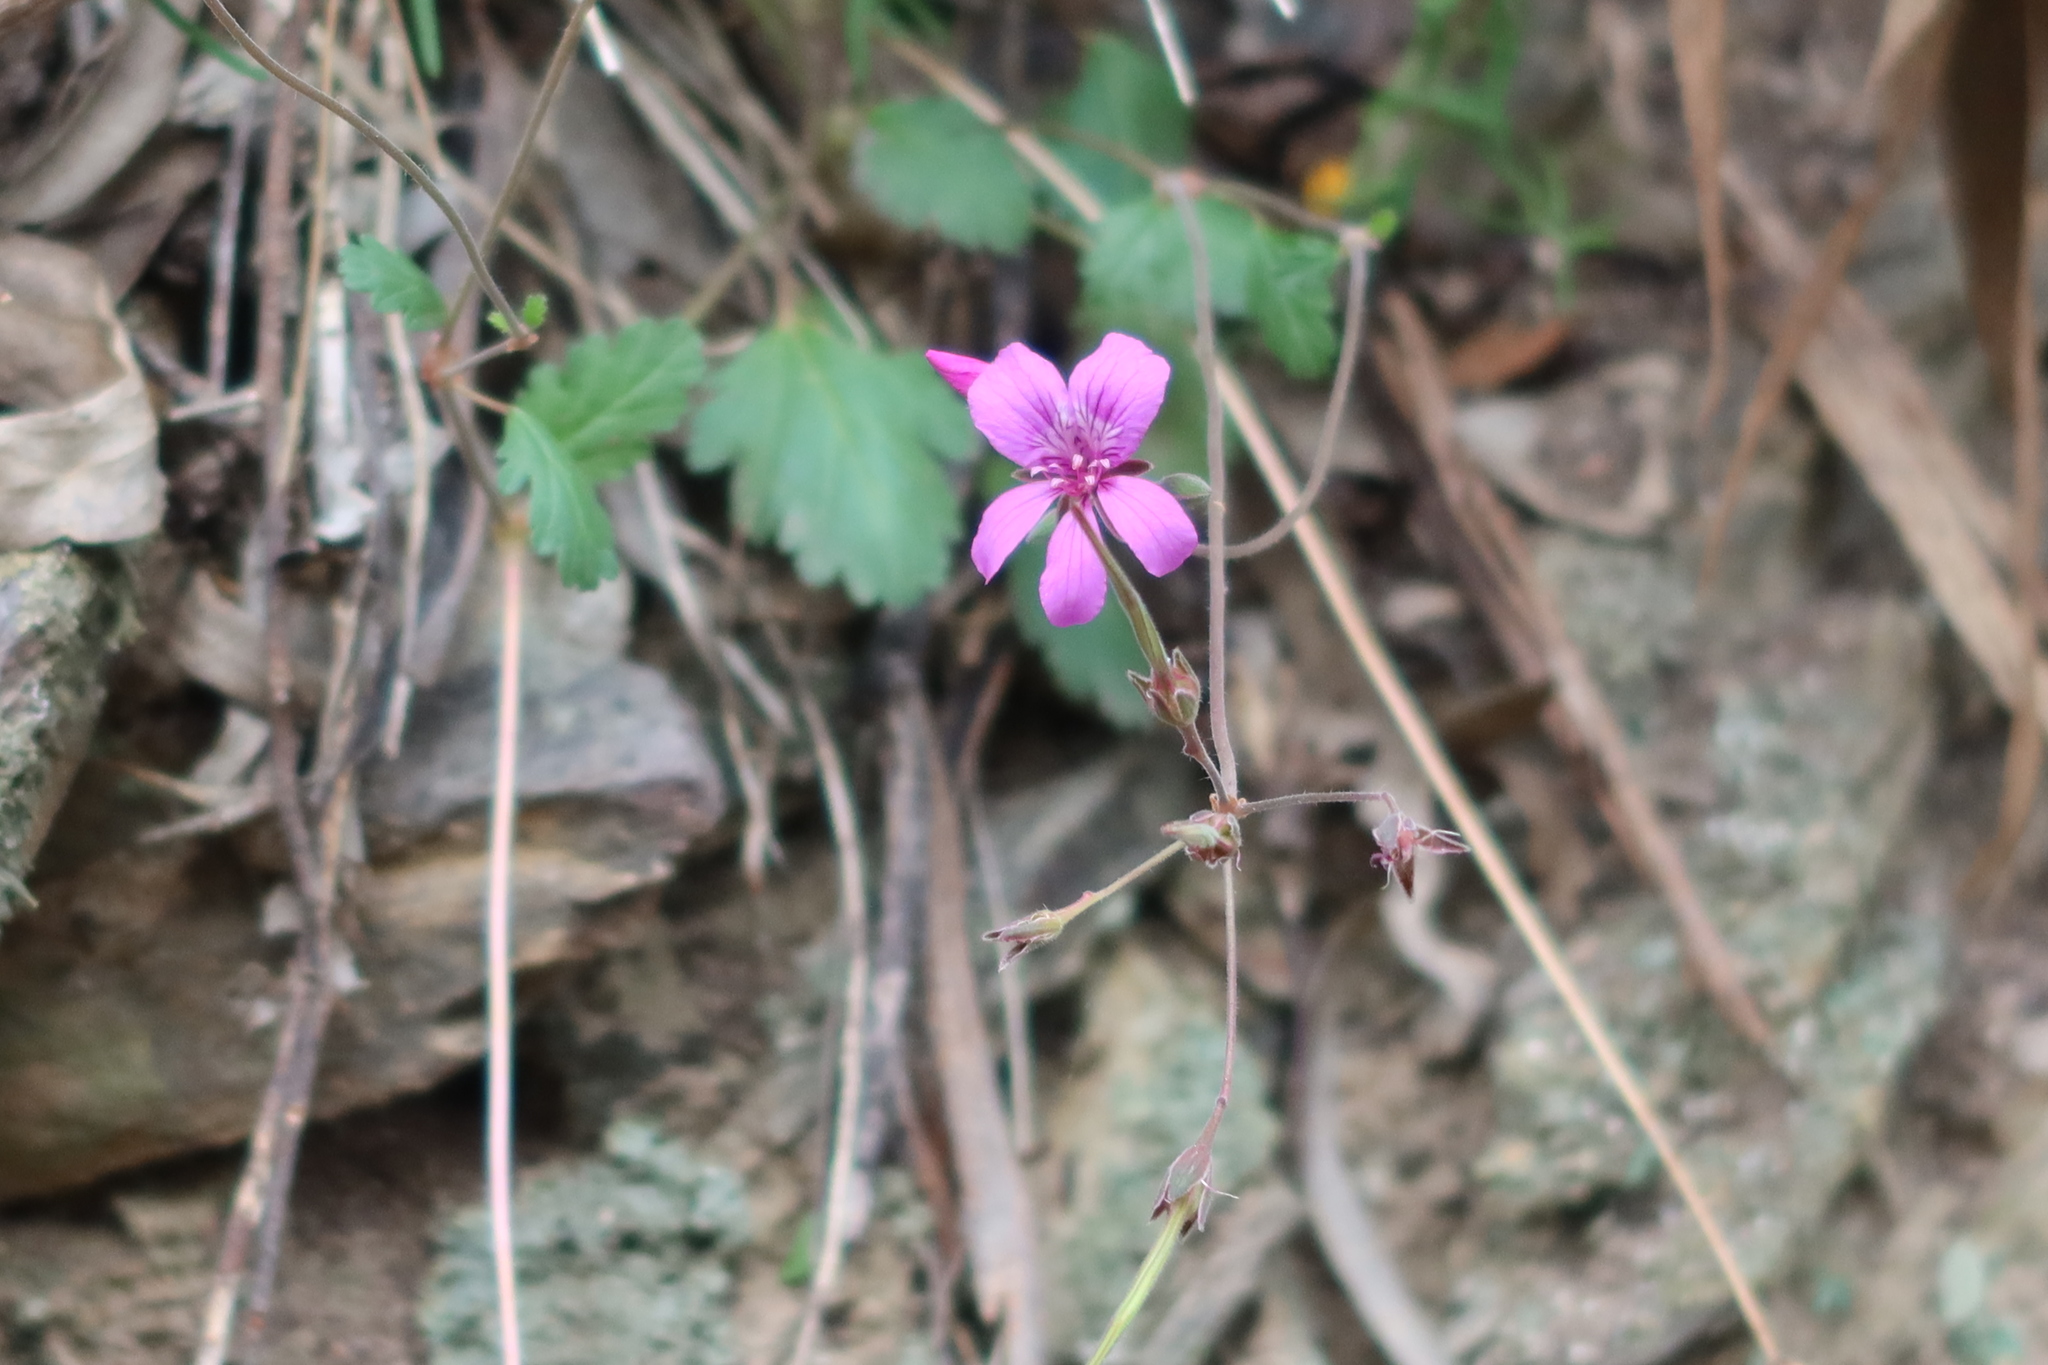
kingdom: Plantae
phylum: Tracheophyta
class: Magnoliopsida
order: Geraniales
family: Geraniaceae
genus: Pelargonium
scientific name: Pelargonium rodneyanum
